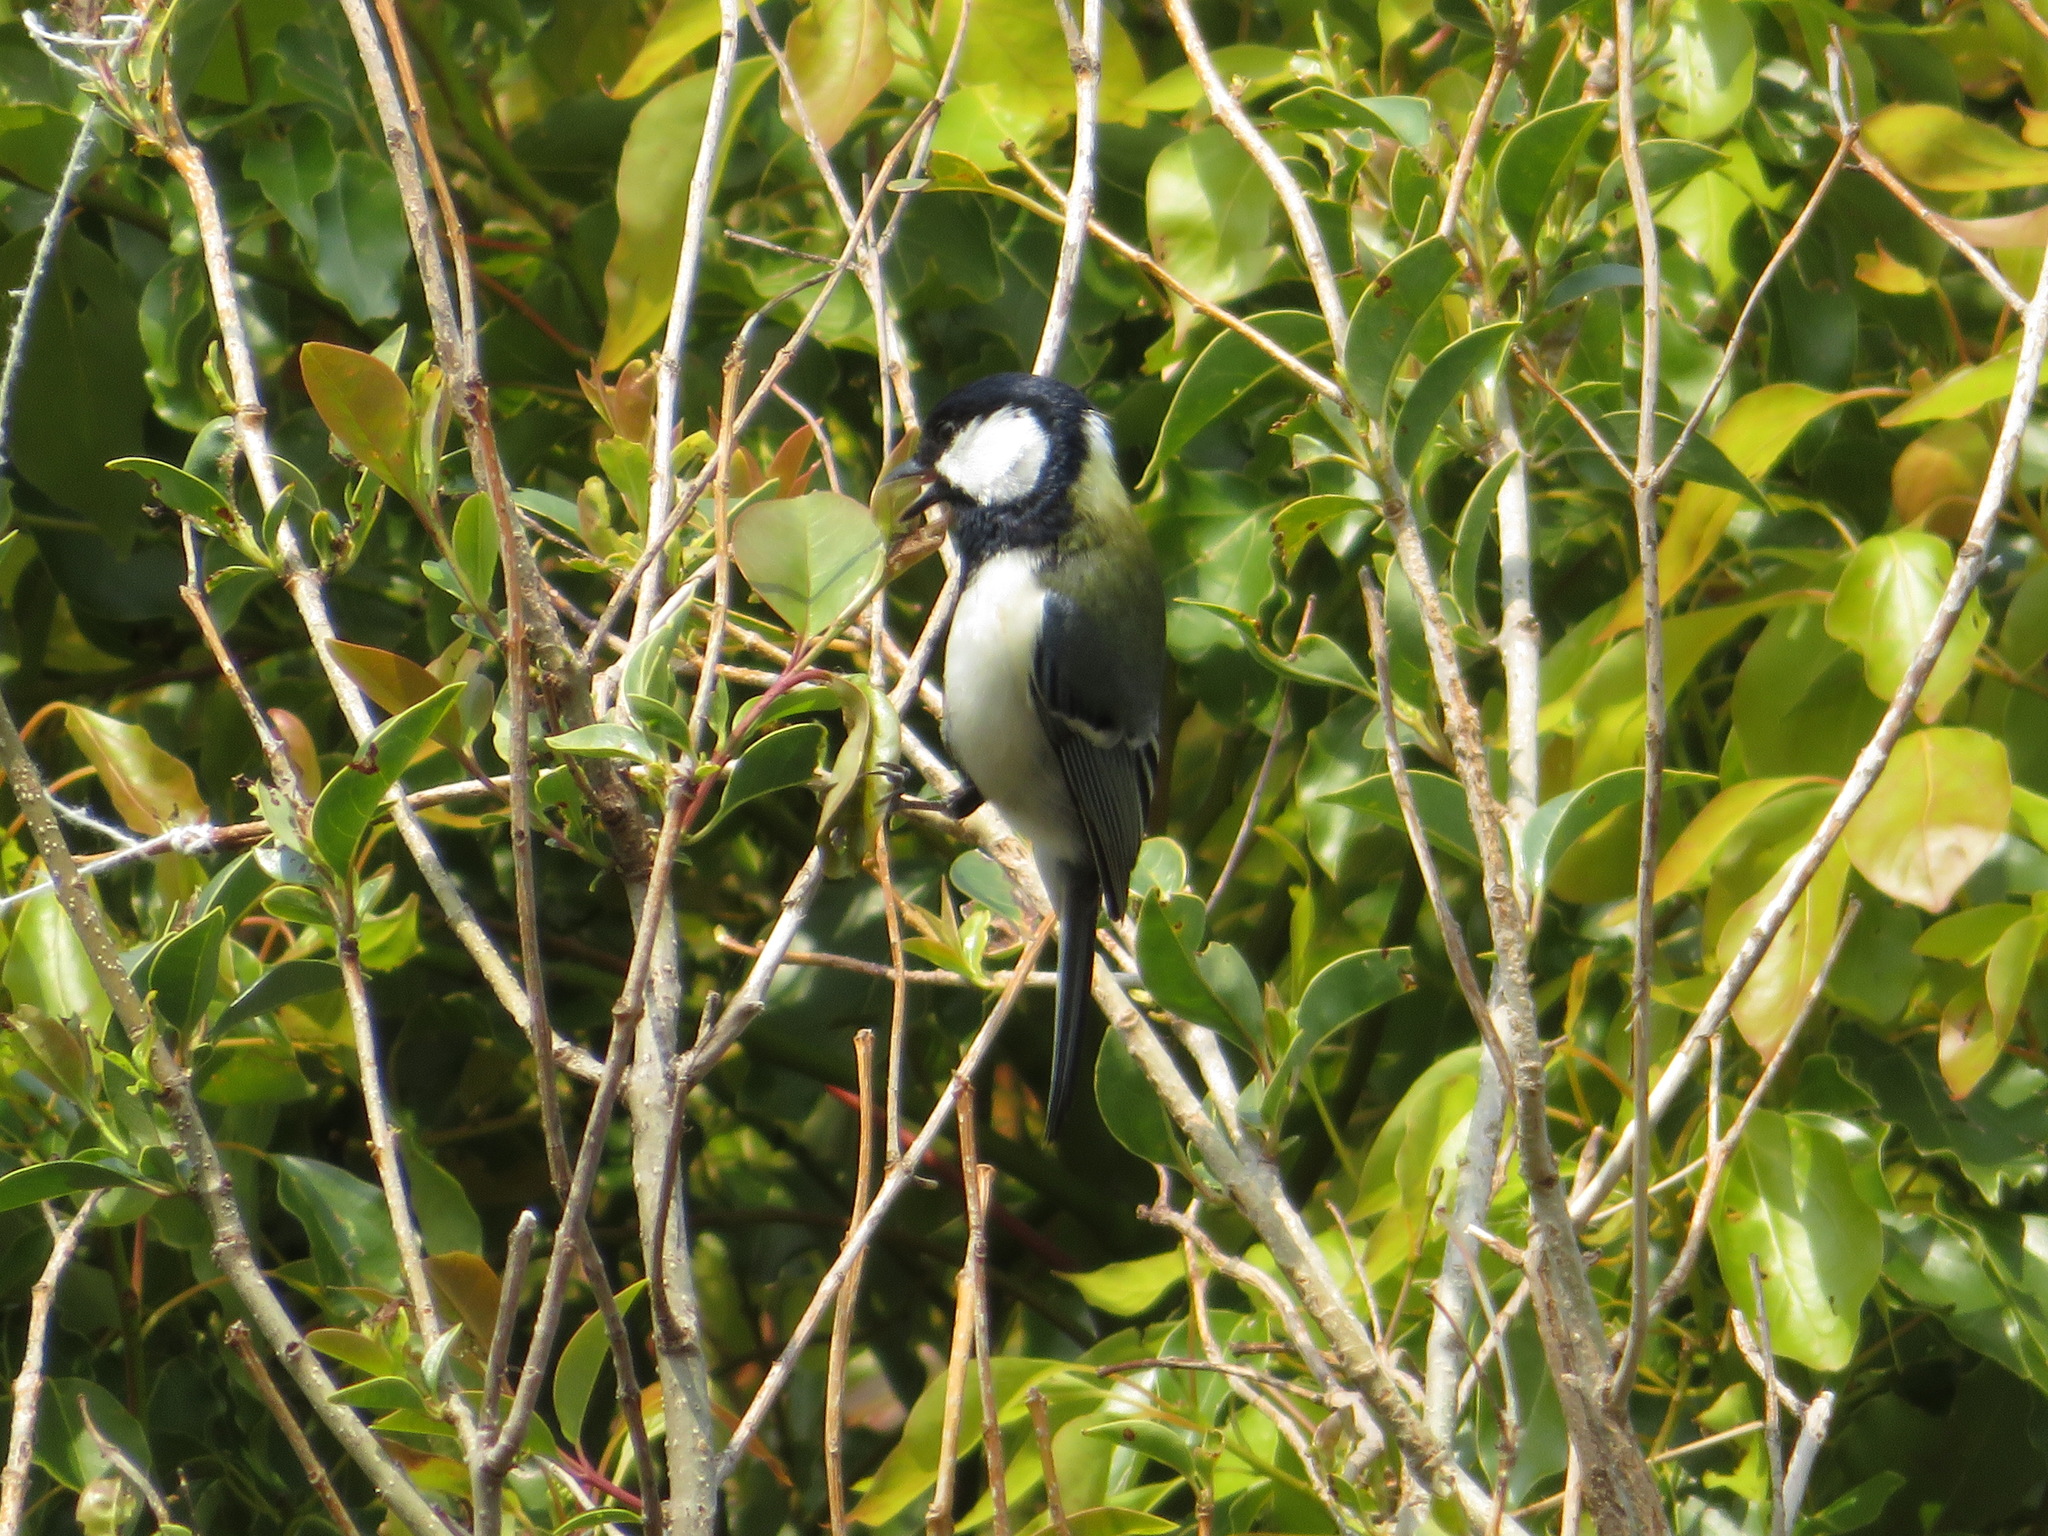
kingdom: Animalia
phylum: Chordata
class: Aves
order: Passeriformes
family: Paridae
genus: Parus
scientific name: Parus minor
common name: Japanese tit
